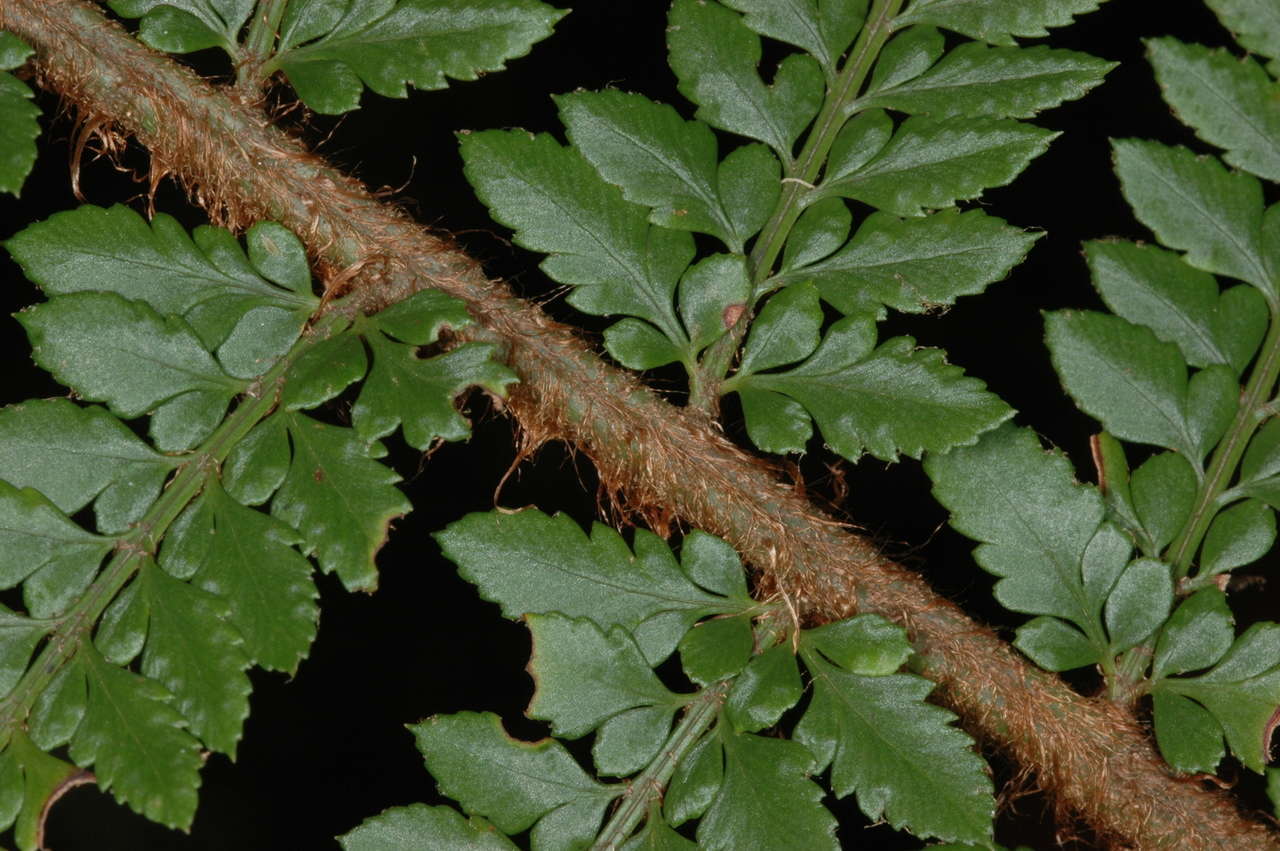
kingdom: Plantae
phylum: Tracheophyta
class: Polypodiopsida
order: Polypodiales
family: Dryopteridaceae
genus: Polystichum
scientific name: Polystichum proliferum
